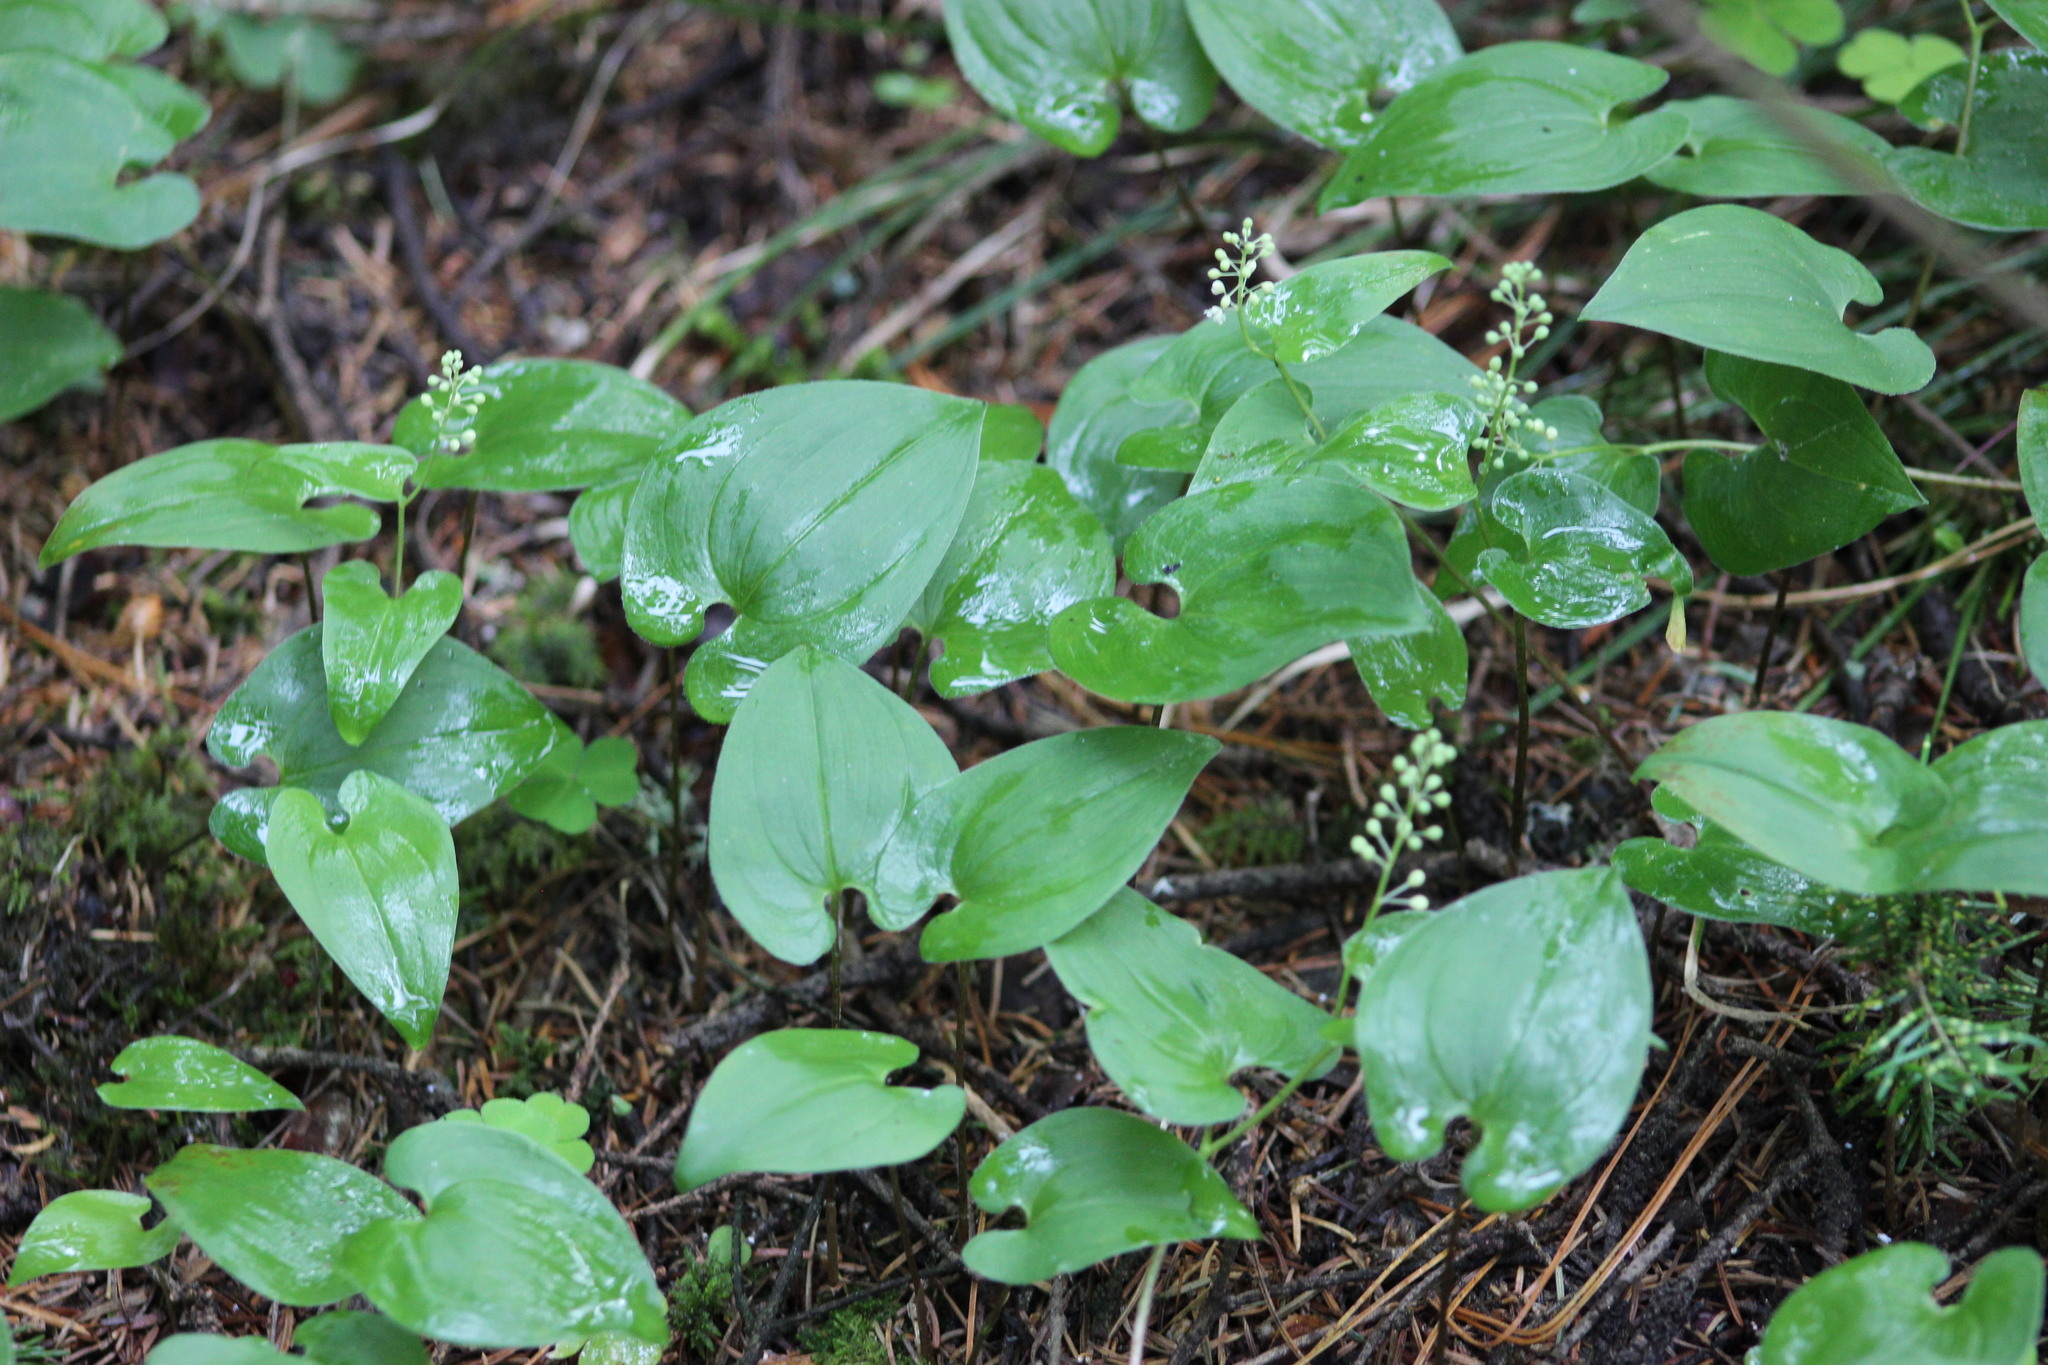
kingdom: Plantae
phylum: Tracheophyta
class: Liliopsida
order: Asparagales
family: Asparagaceae
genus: Maianthemum
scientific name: Maianthemum bifolium
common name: May lily
